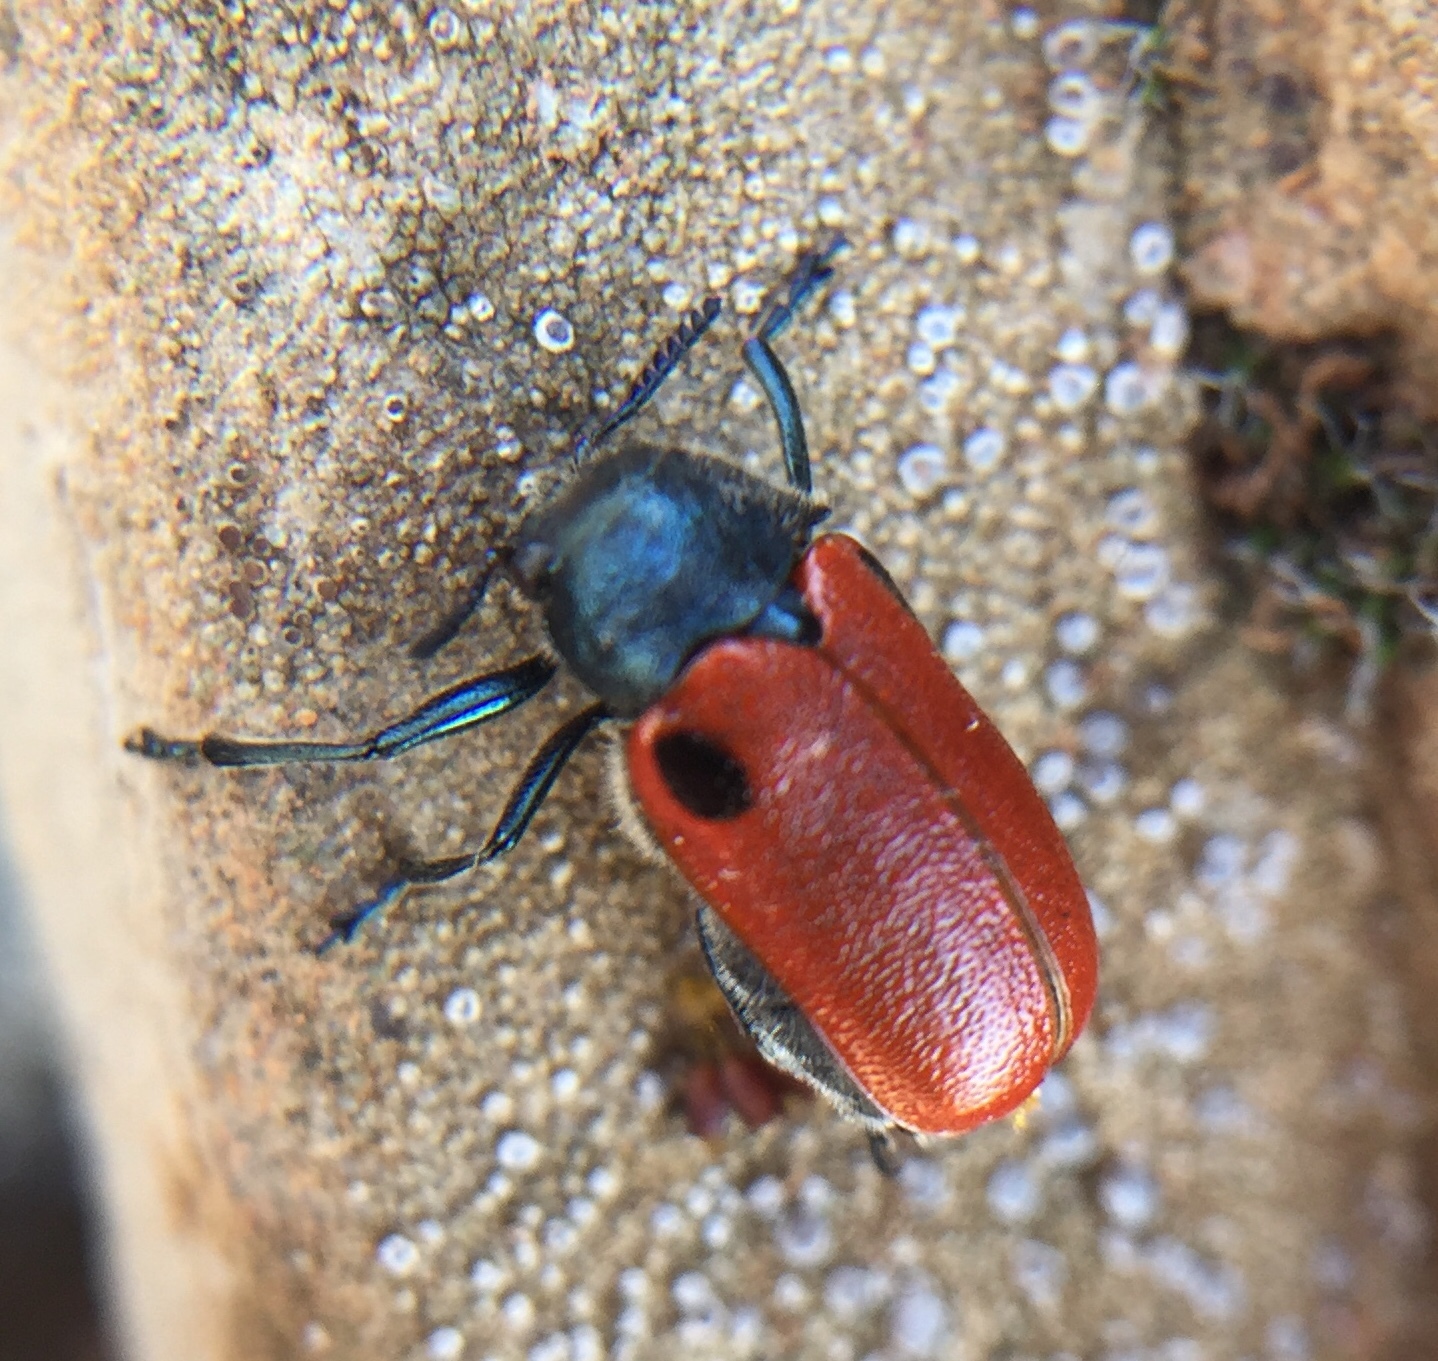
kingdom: Animalia
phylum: Arthropoda
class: Insecta
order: Coleoptera
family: Chrysomelidae
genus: Labidostomis
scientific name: Labidostomis rufa
